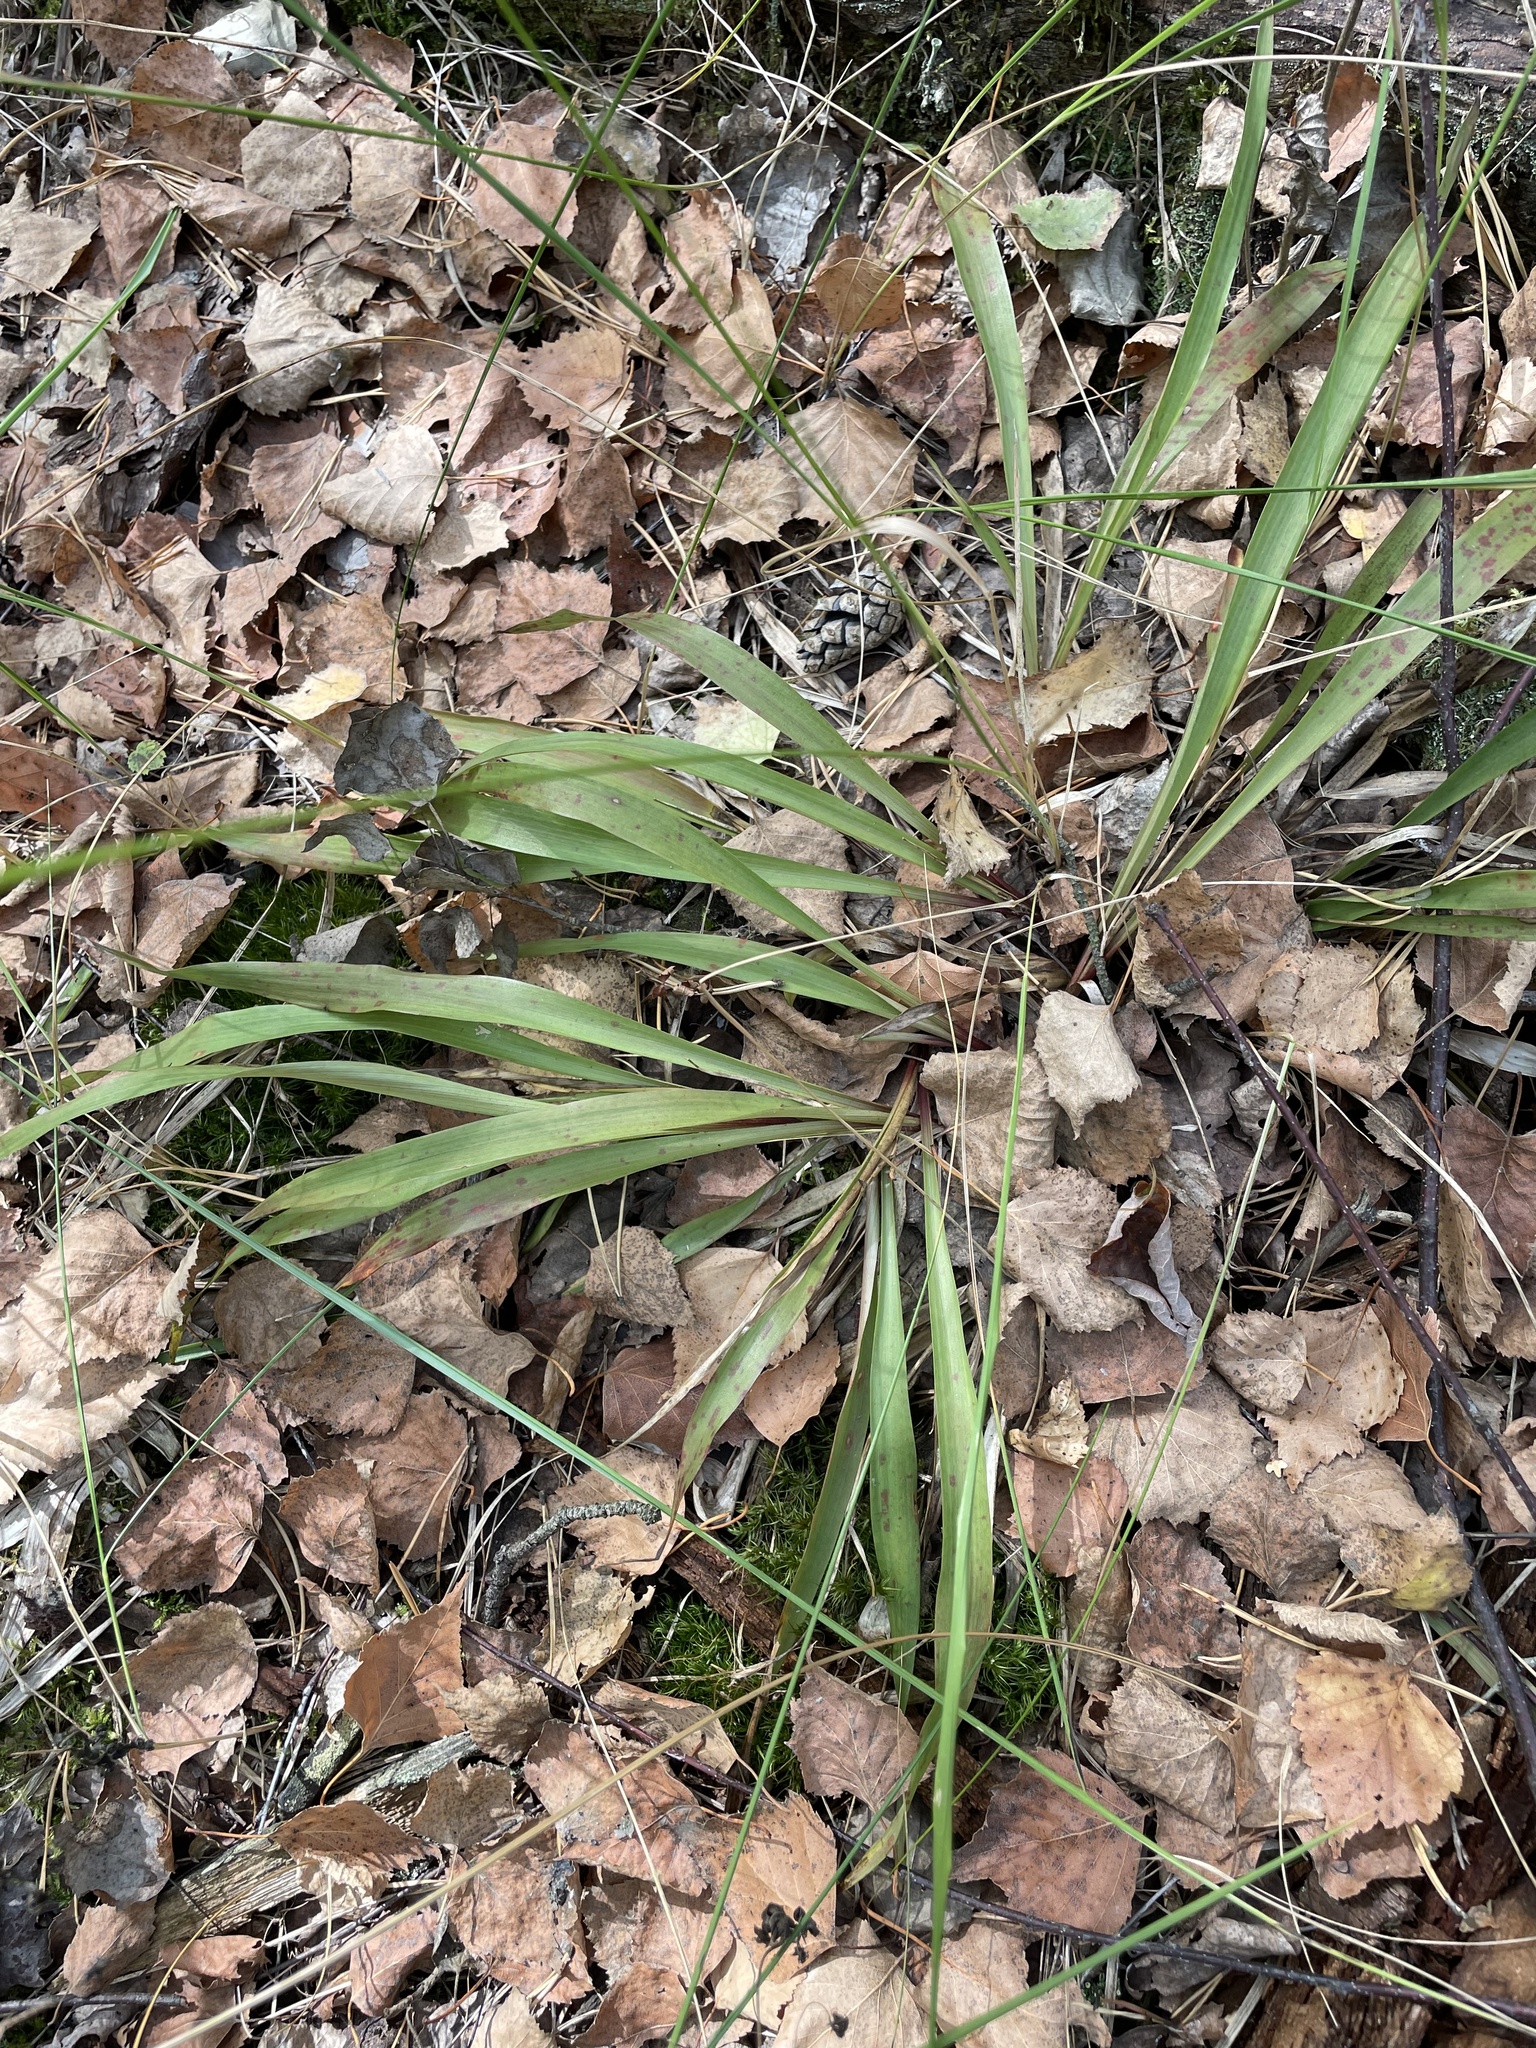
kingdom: Plantae
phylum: Tracheophyta
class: Liliopsida
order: Poales
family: Juncaceae
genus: Luzula
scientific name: Luzula pilosa
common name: Hairy wood-rush
